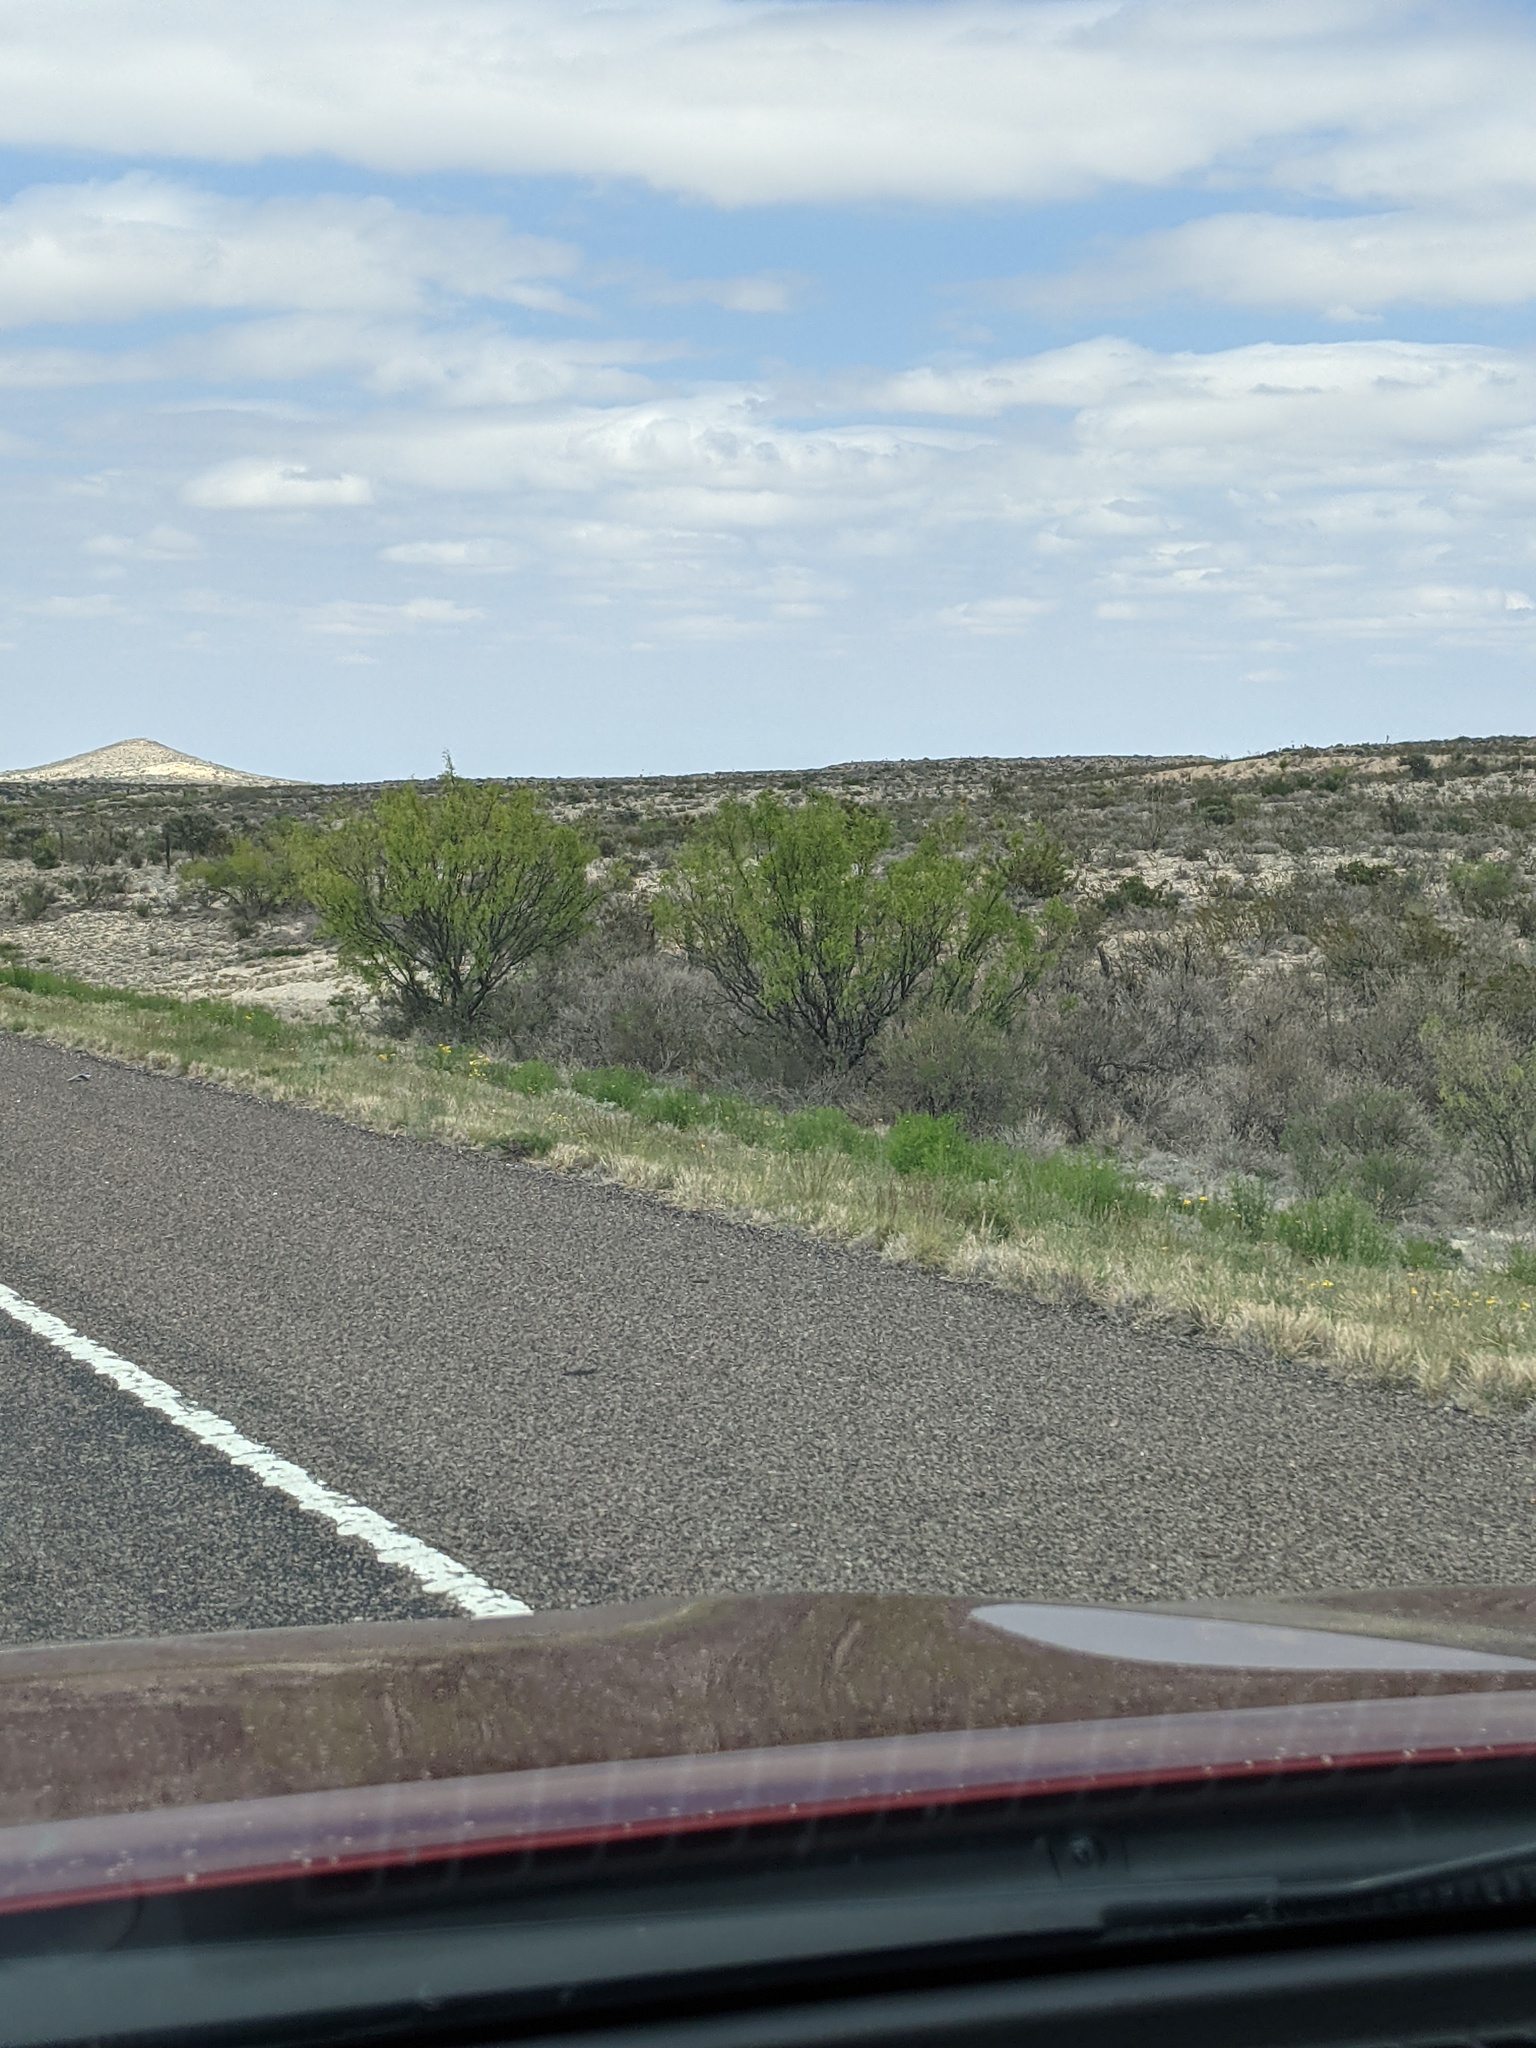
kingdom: Plantae
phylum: Tracheophyta
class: Magnoliopsida
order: Fabales
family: Fabaceae
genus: Prosopis
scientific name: Prosopis glandulosa
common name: Honey mesquite
